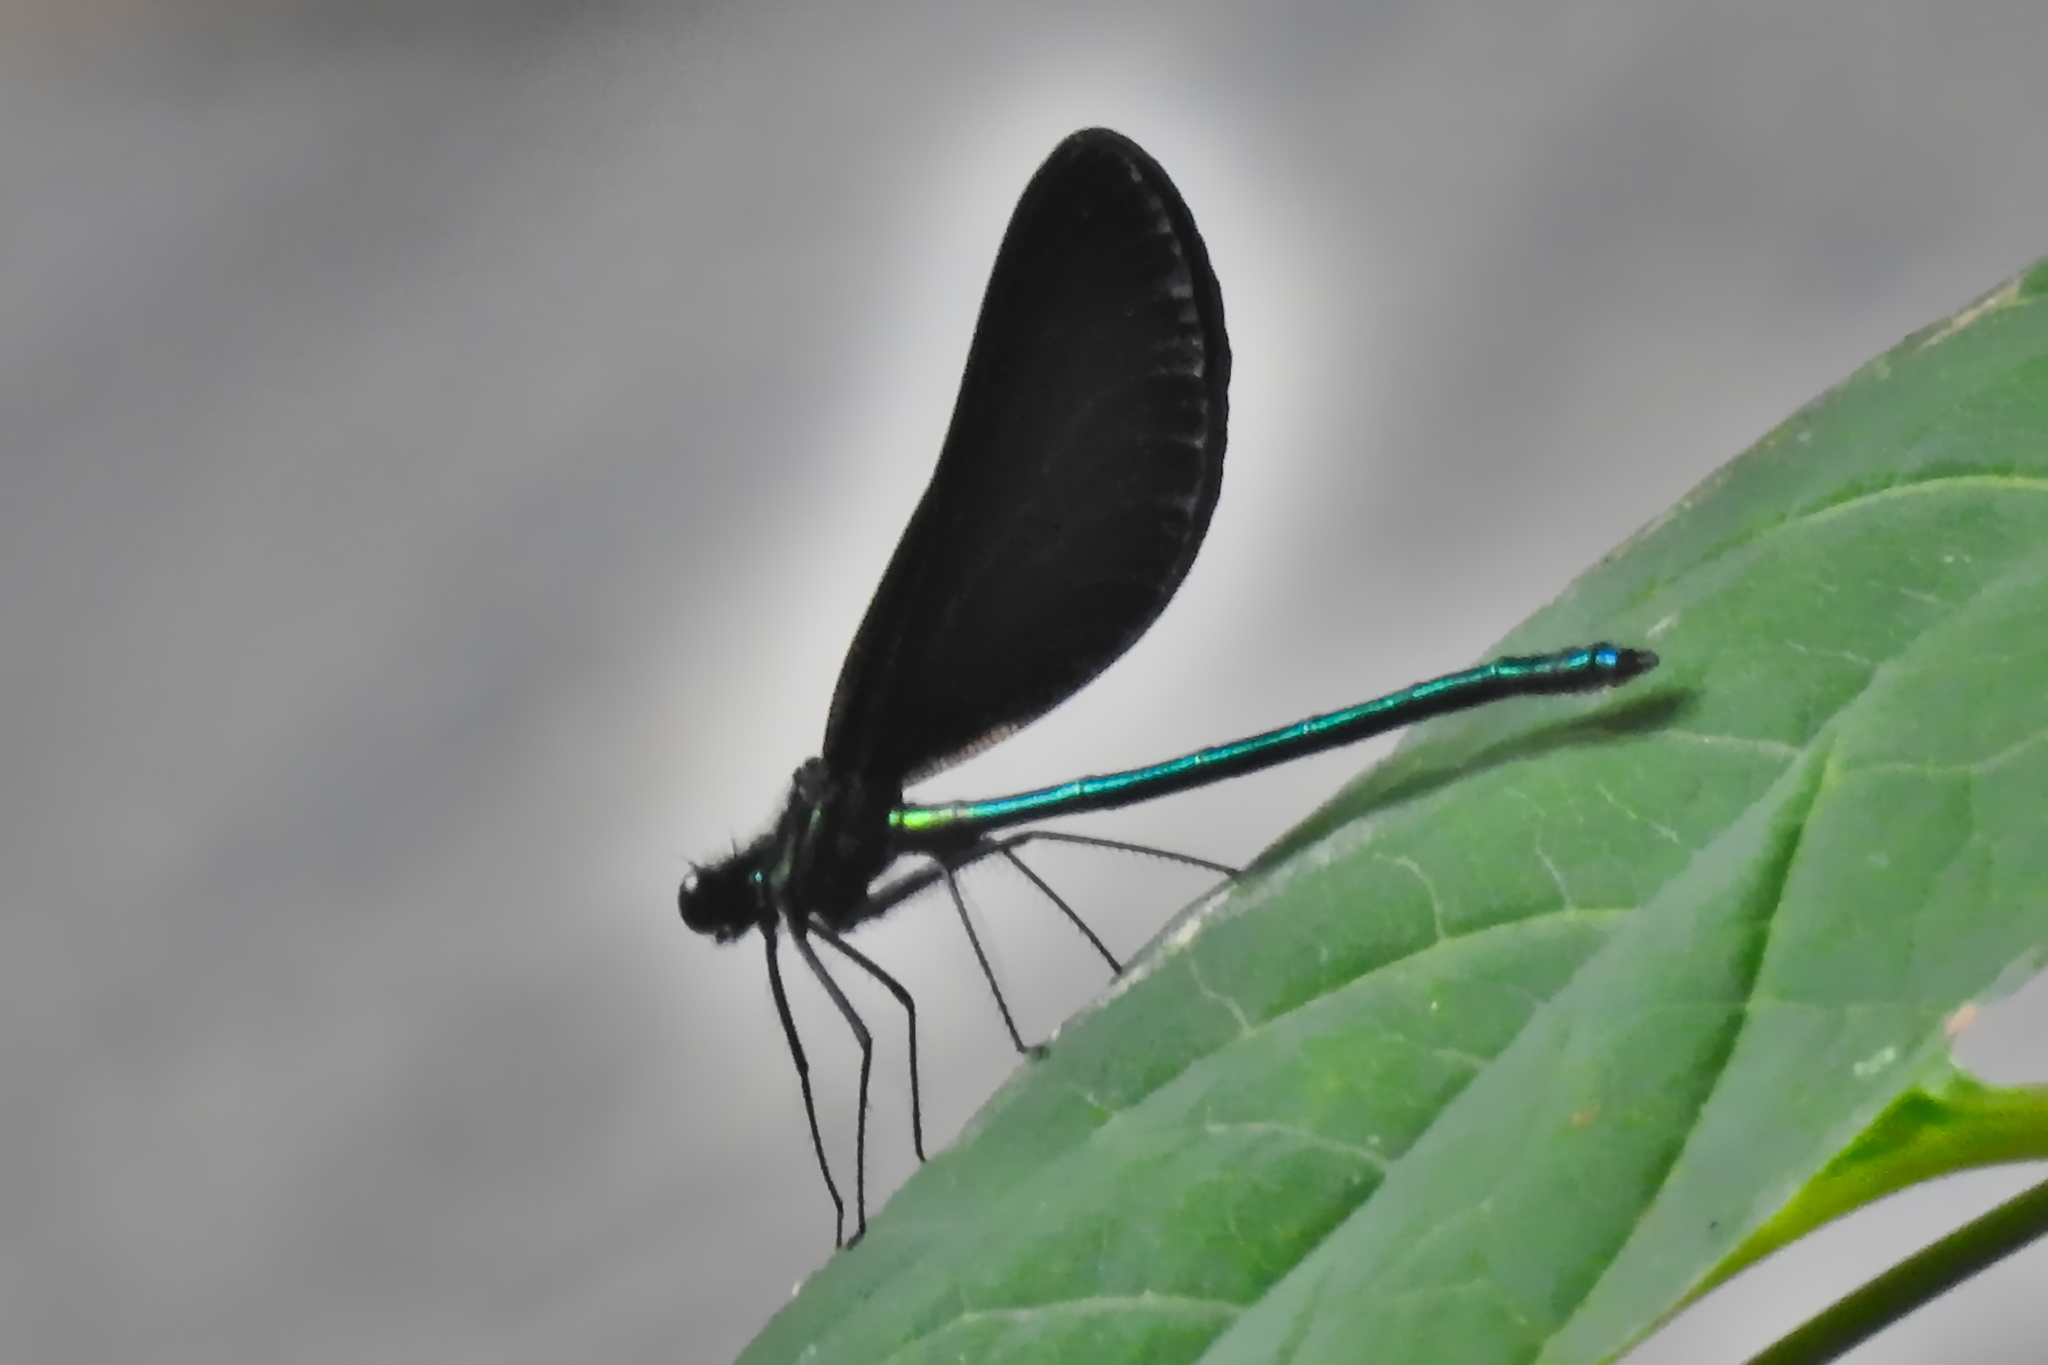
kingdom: Animalia
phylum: Arthropoda
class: Insecta
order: Odonata
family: Calopterygidae
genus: Calopteryx
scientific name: Calopteryx maculata
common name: Ebony jewelwing
